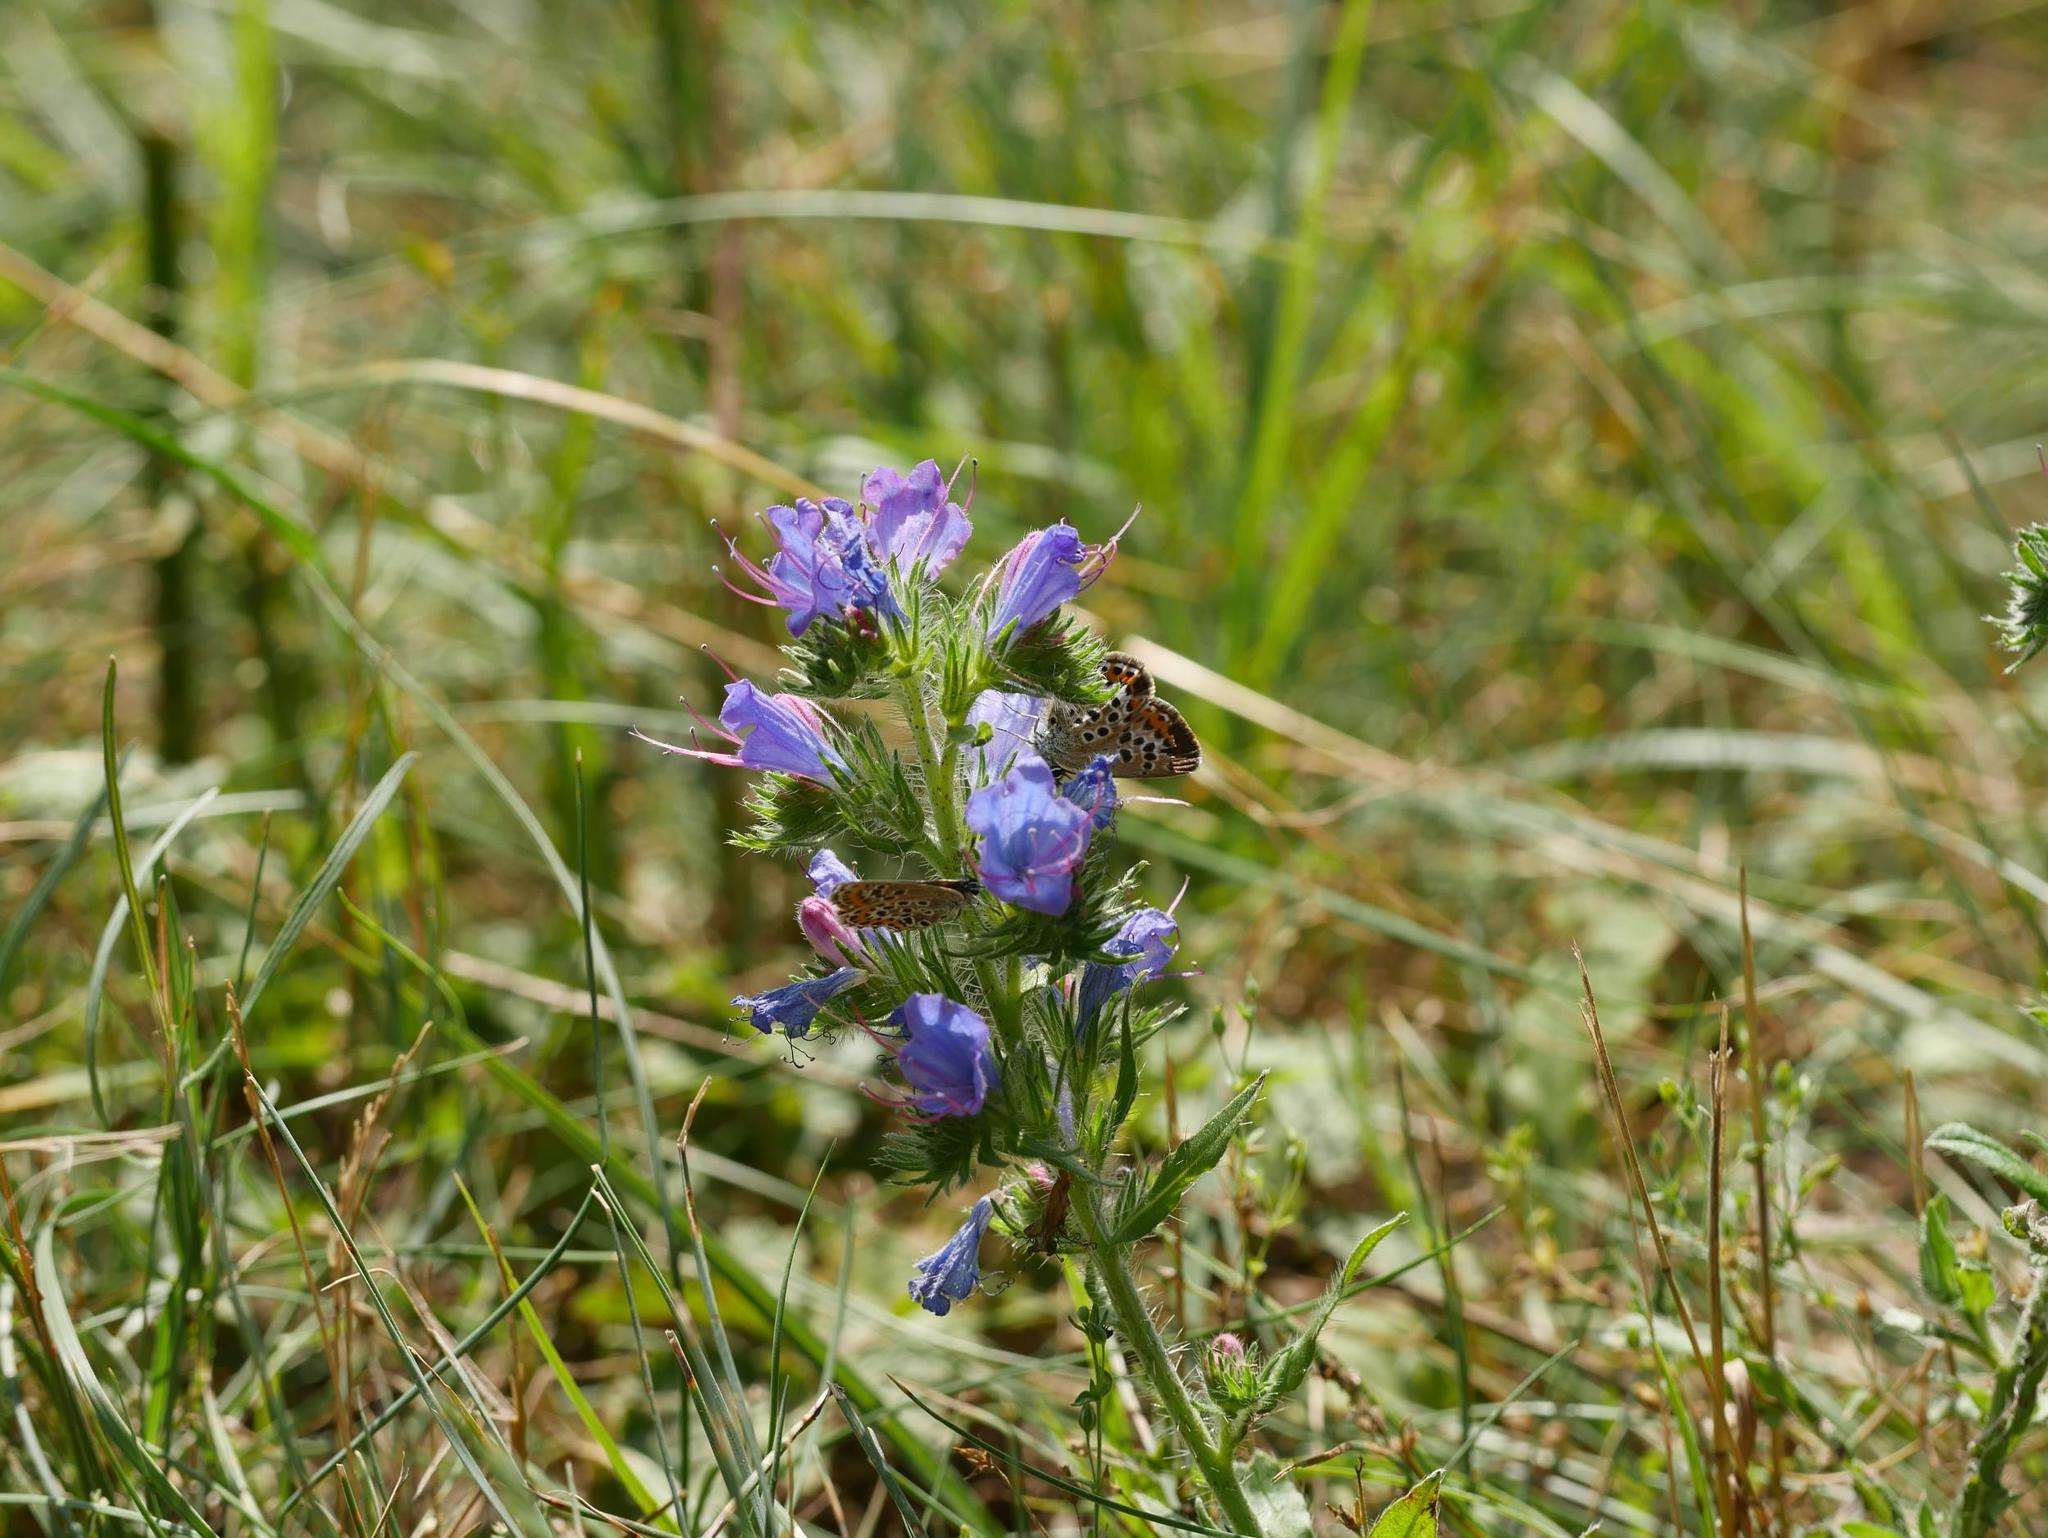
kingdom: Plantae
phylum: Tracheophyta
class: Magnoliopsida
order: Boraginales
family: Boraginaceae
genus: Echium
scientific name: Echium vulgare
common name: Common viper's bugloss
